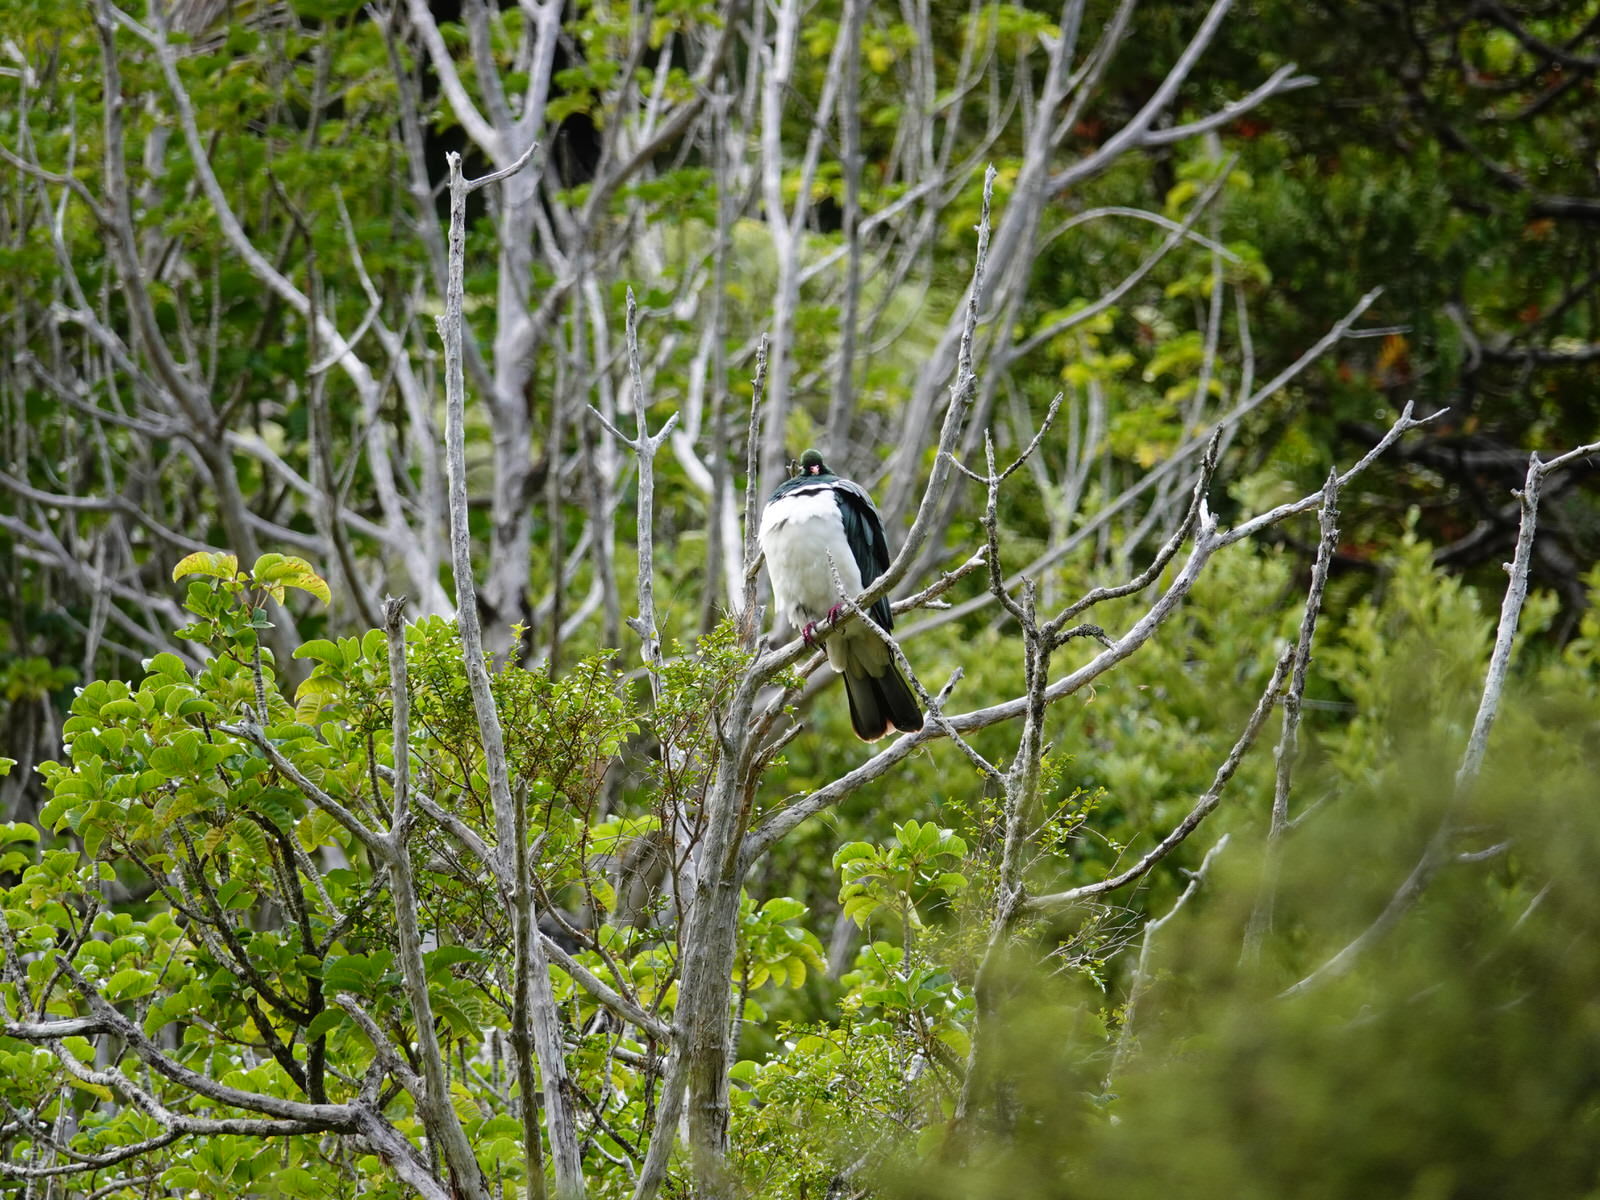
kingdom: Animalia
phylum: Chordata
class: Aves
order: Columbiformes
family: Columbidae
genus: Hemiphaga
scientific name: Hemiphaga novaeseelandiae
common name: New zealand pigeon
